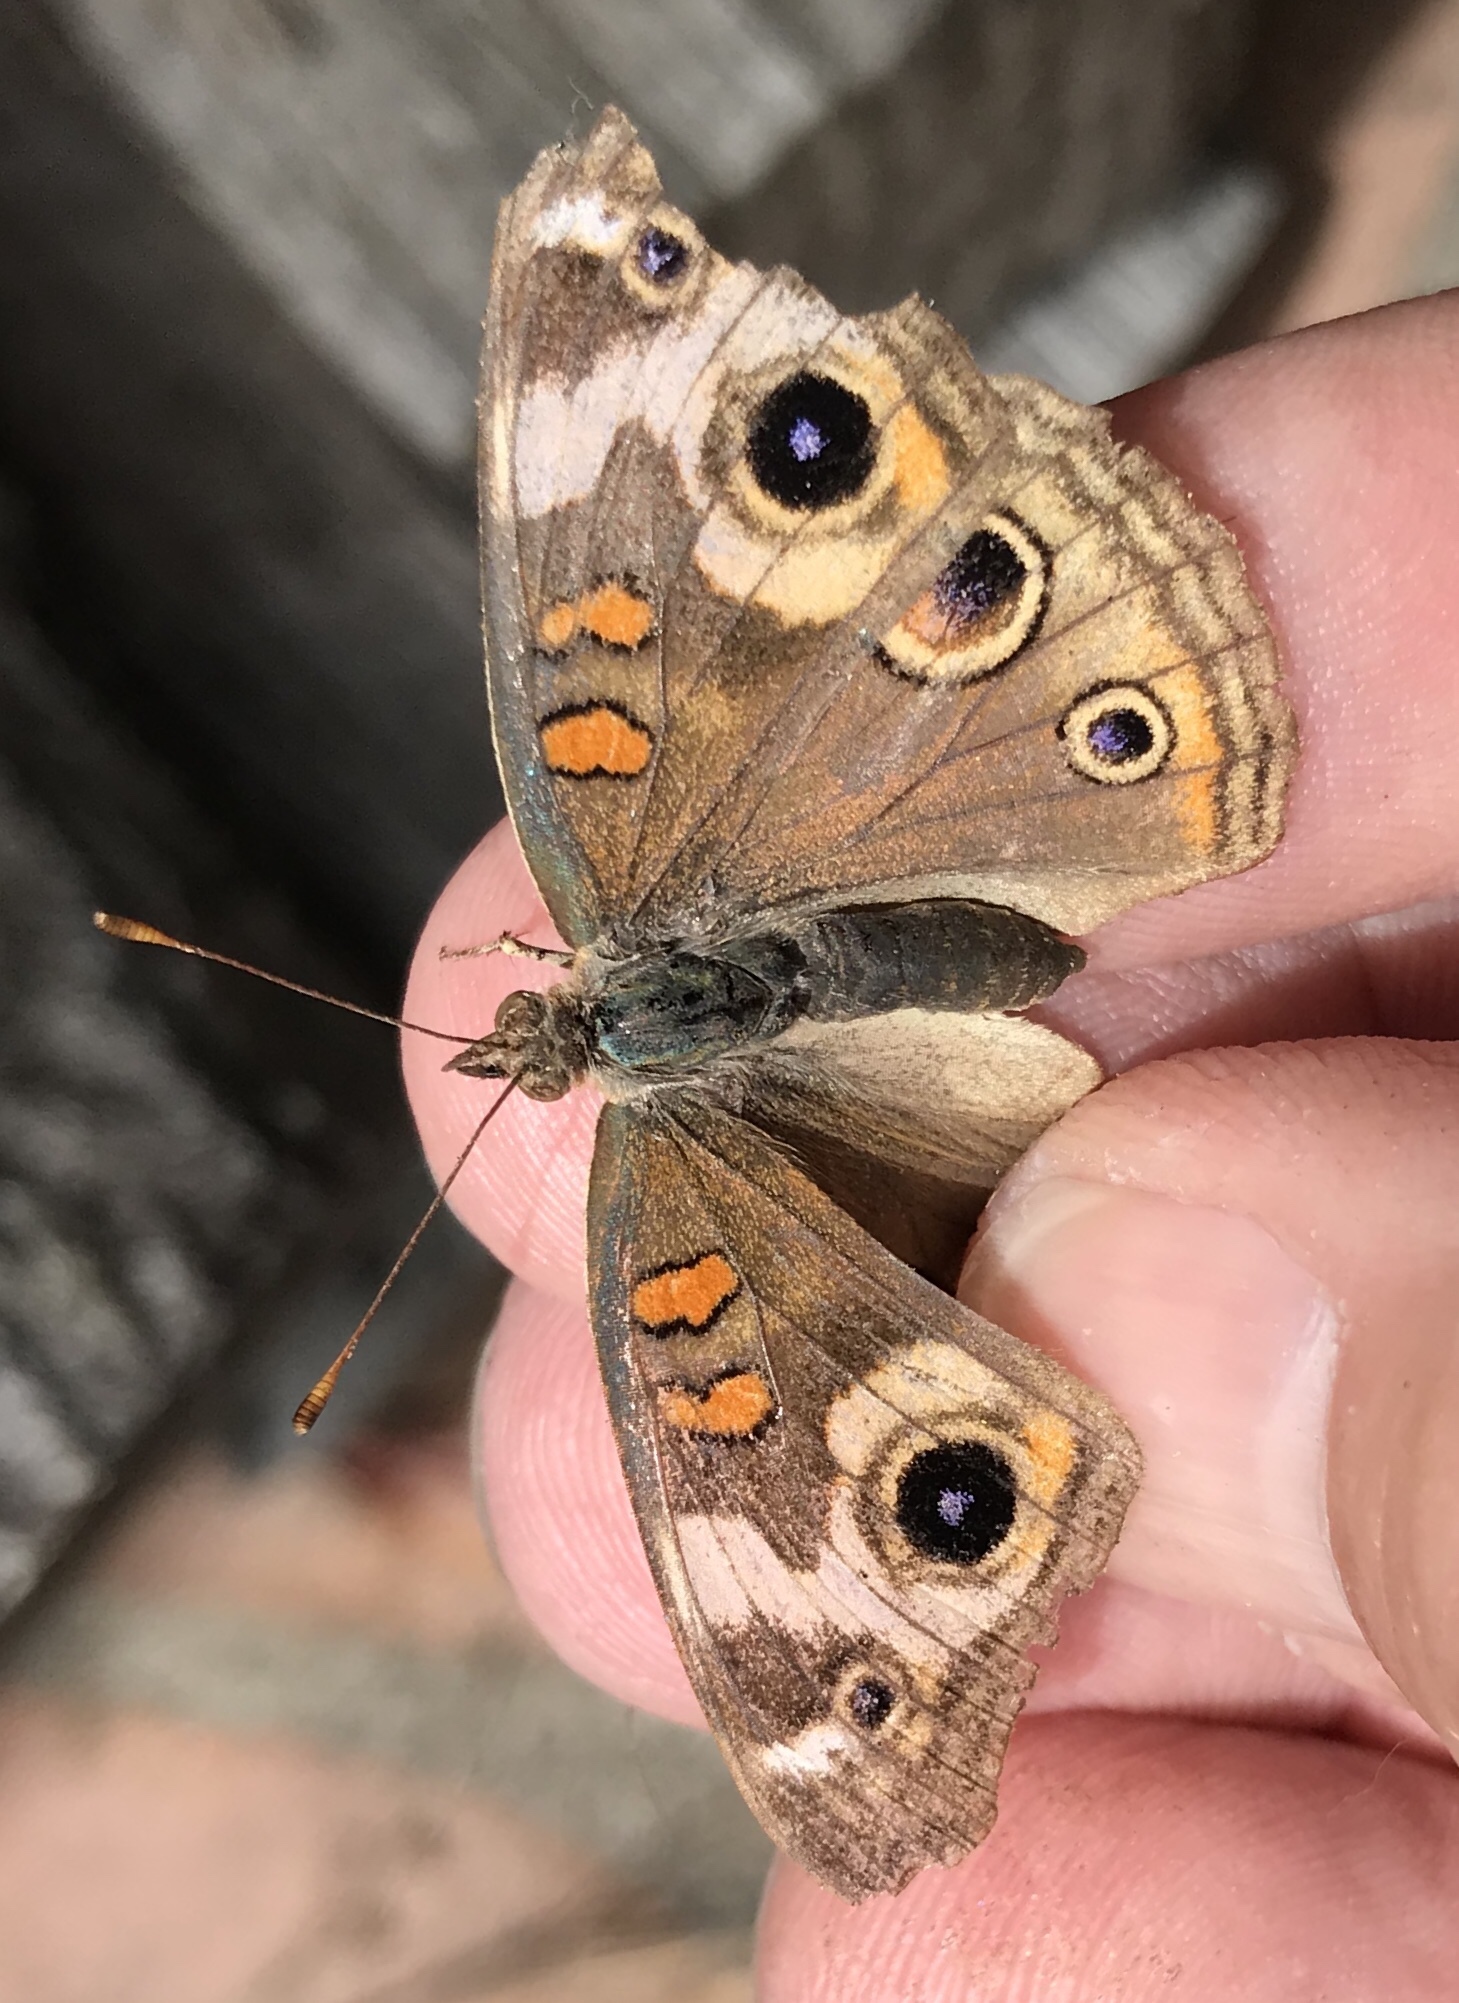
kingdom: Animalia
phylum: Arthropoda
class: Insecta
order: Lepidoptera
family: Nymphalidae
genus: Junonia
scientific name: Junonia grisea
